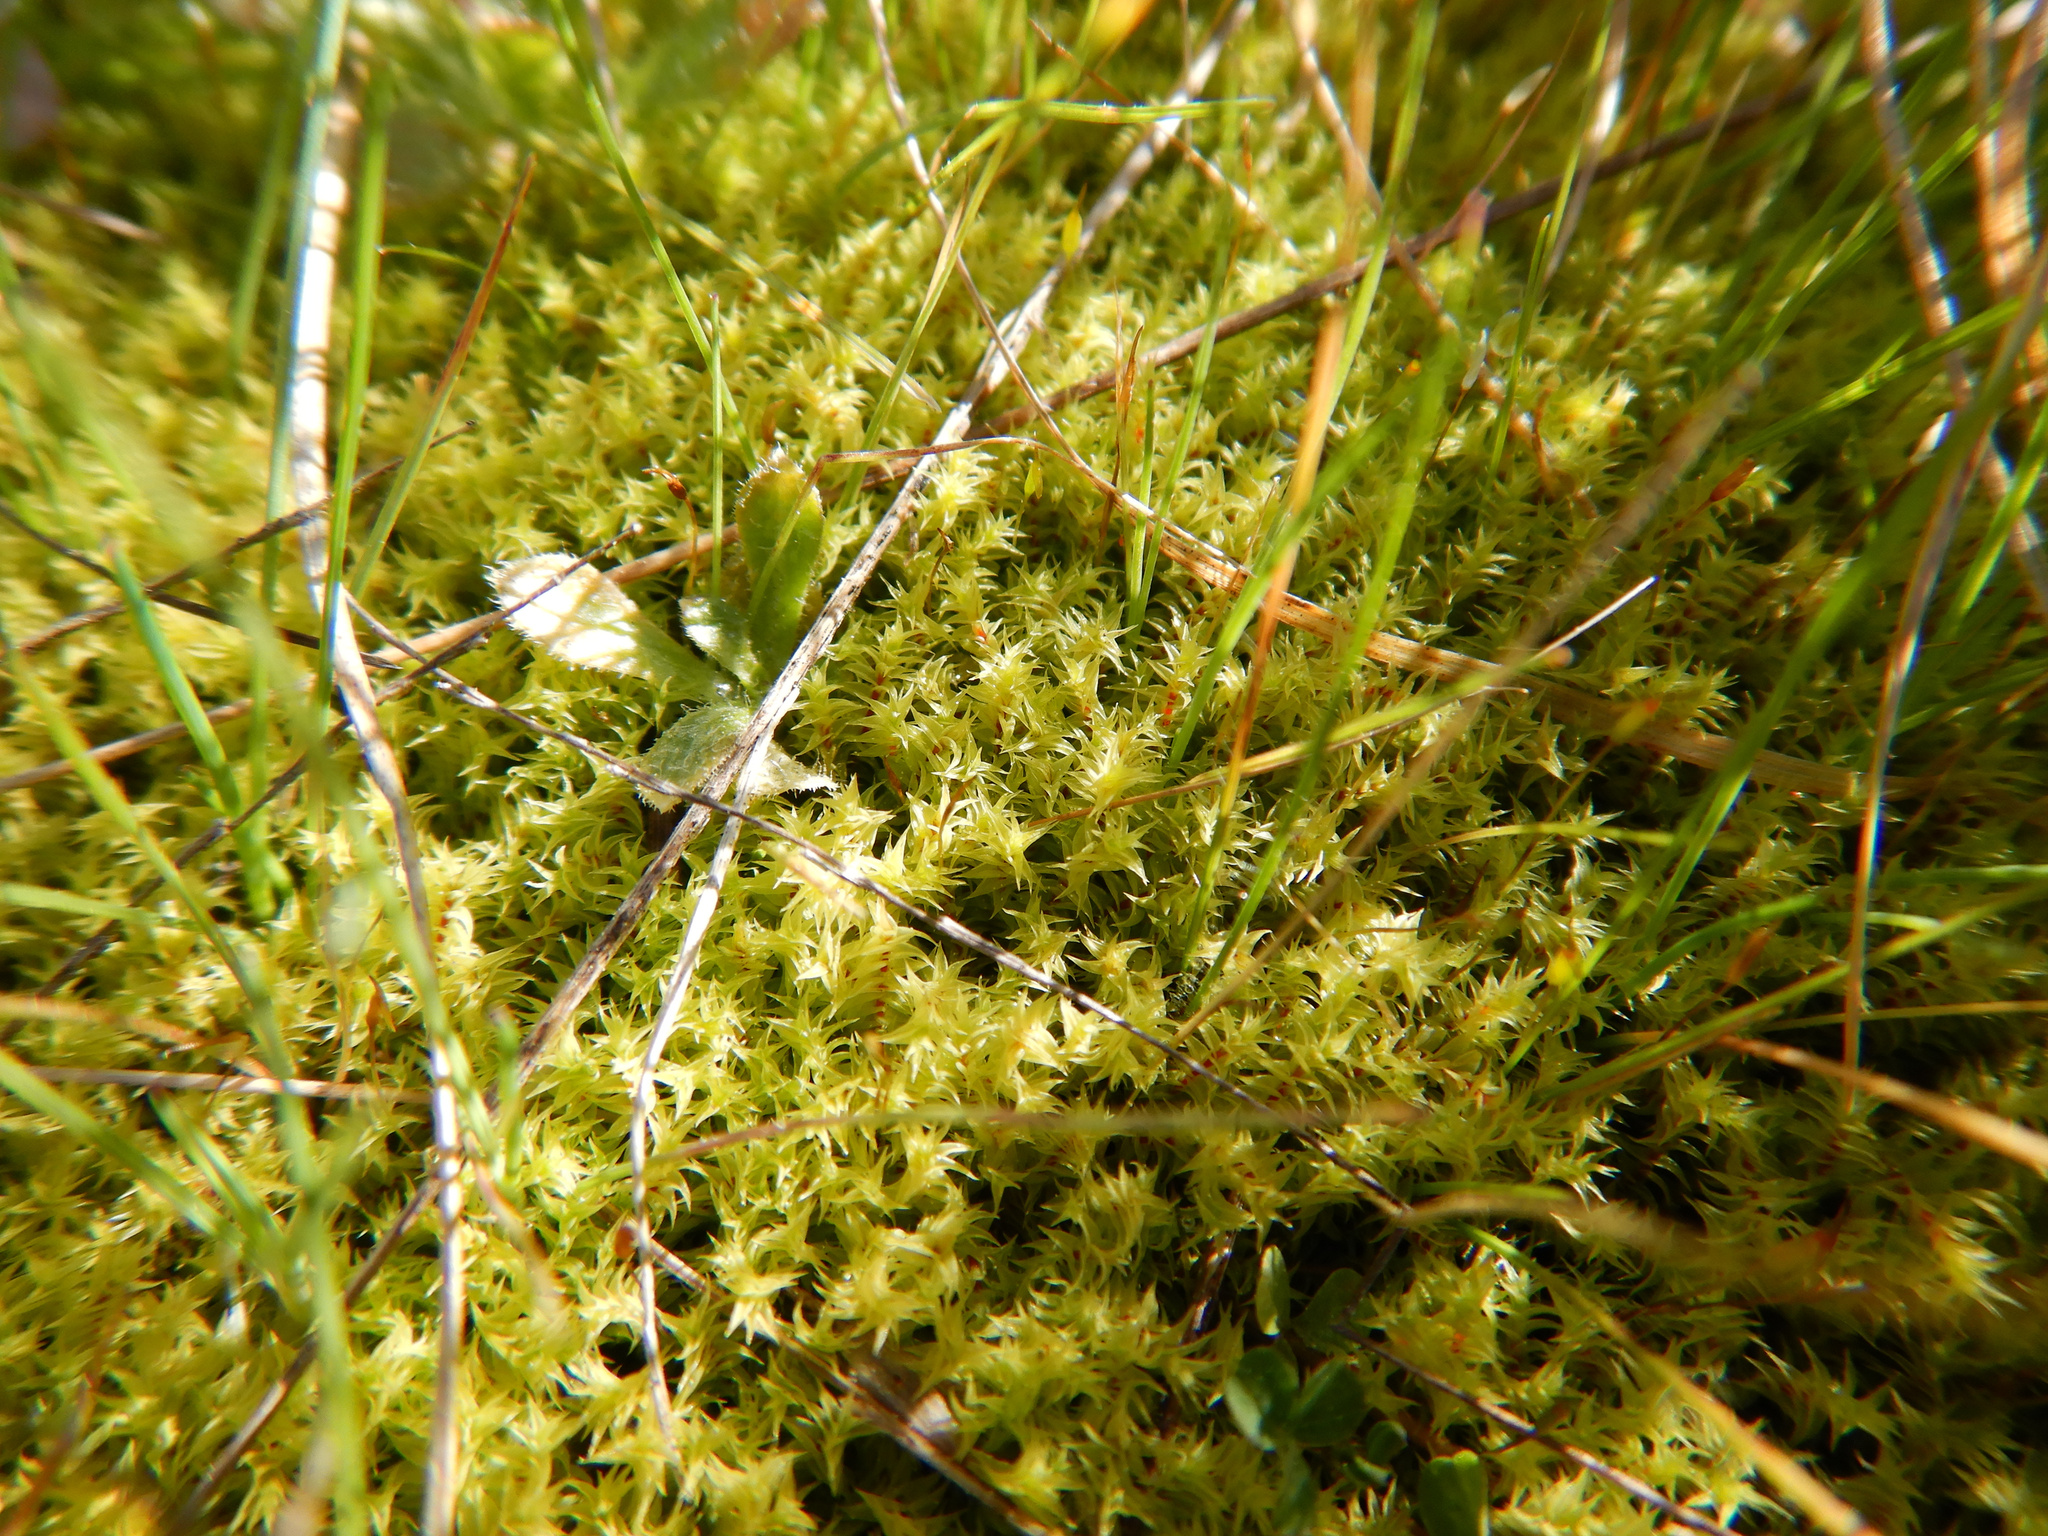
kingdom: Plantae
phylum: Bryophyta
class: Bryopsida
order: Pottiales
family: Pottiaceae
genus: Triquetrella
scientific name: Triquetrella papillata
